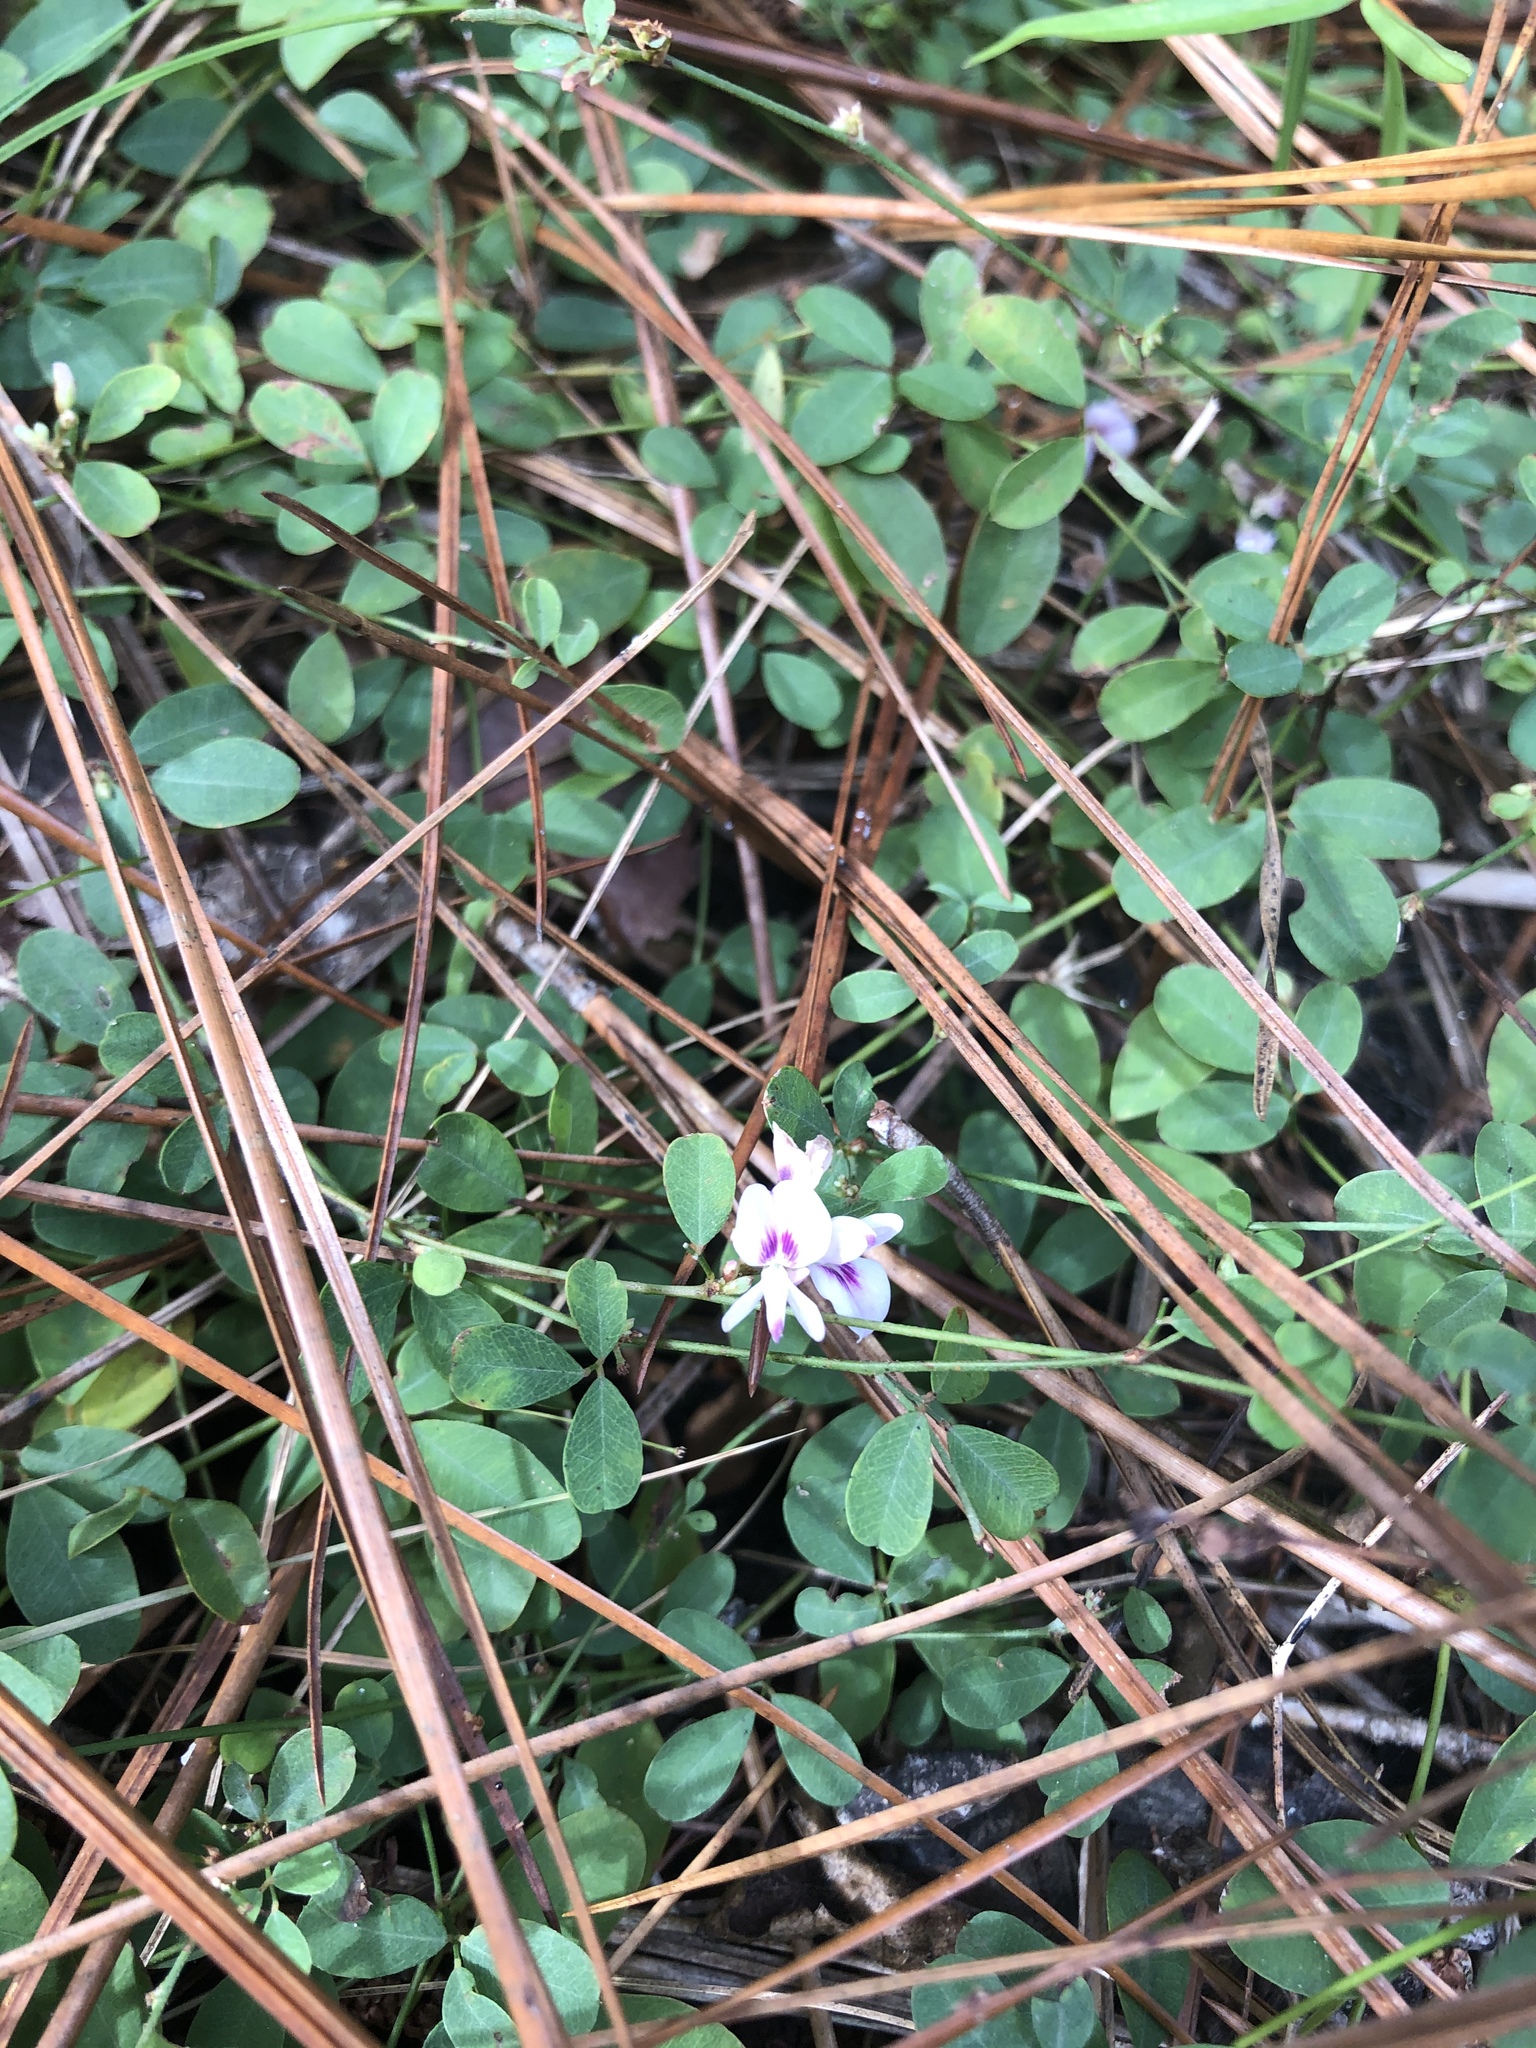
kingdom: Plantae
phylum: Tracheophyta
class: Magnoliopsida
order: Fabales
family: Fabaceae
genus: Lespedeza
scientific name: Lespedeza repens
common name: Creeping bush-clover
